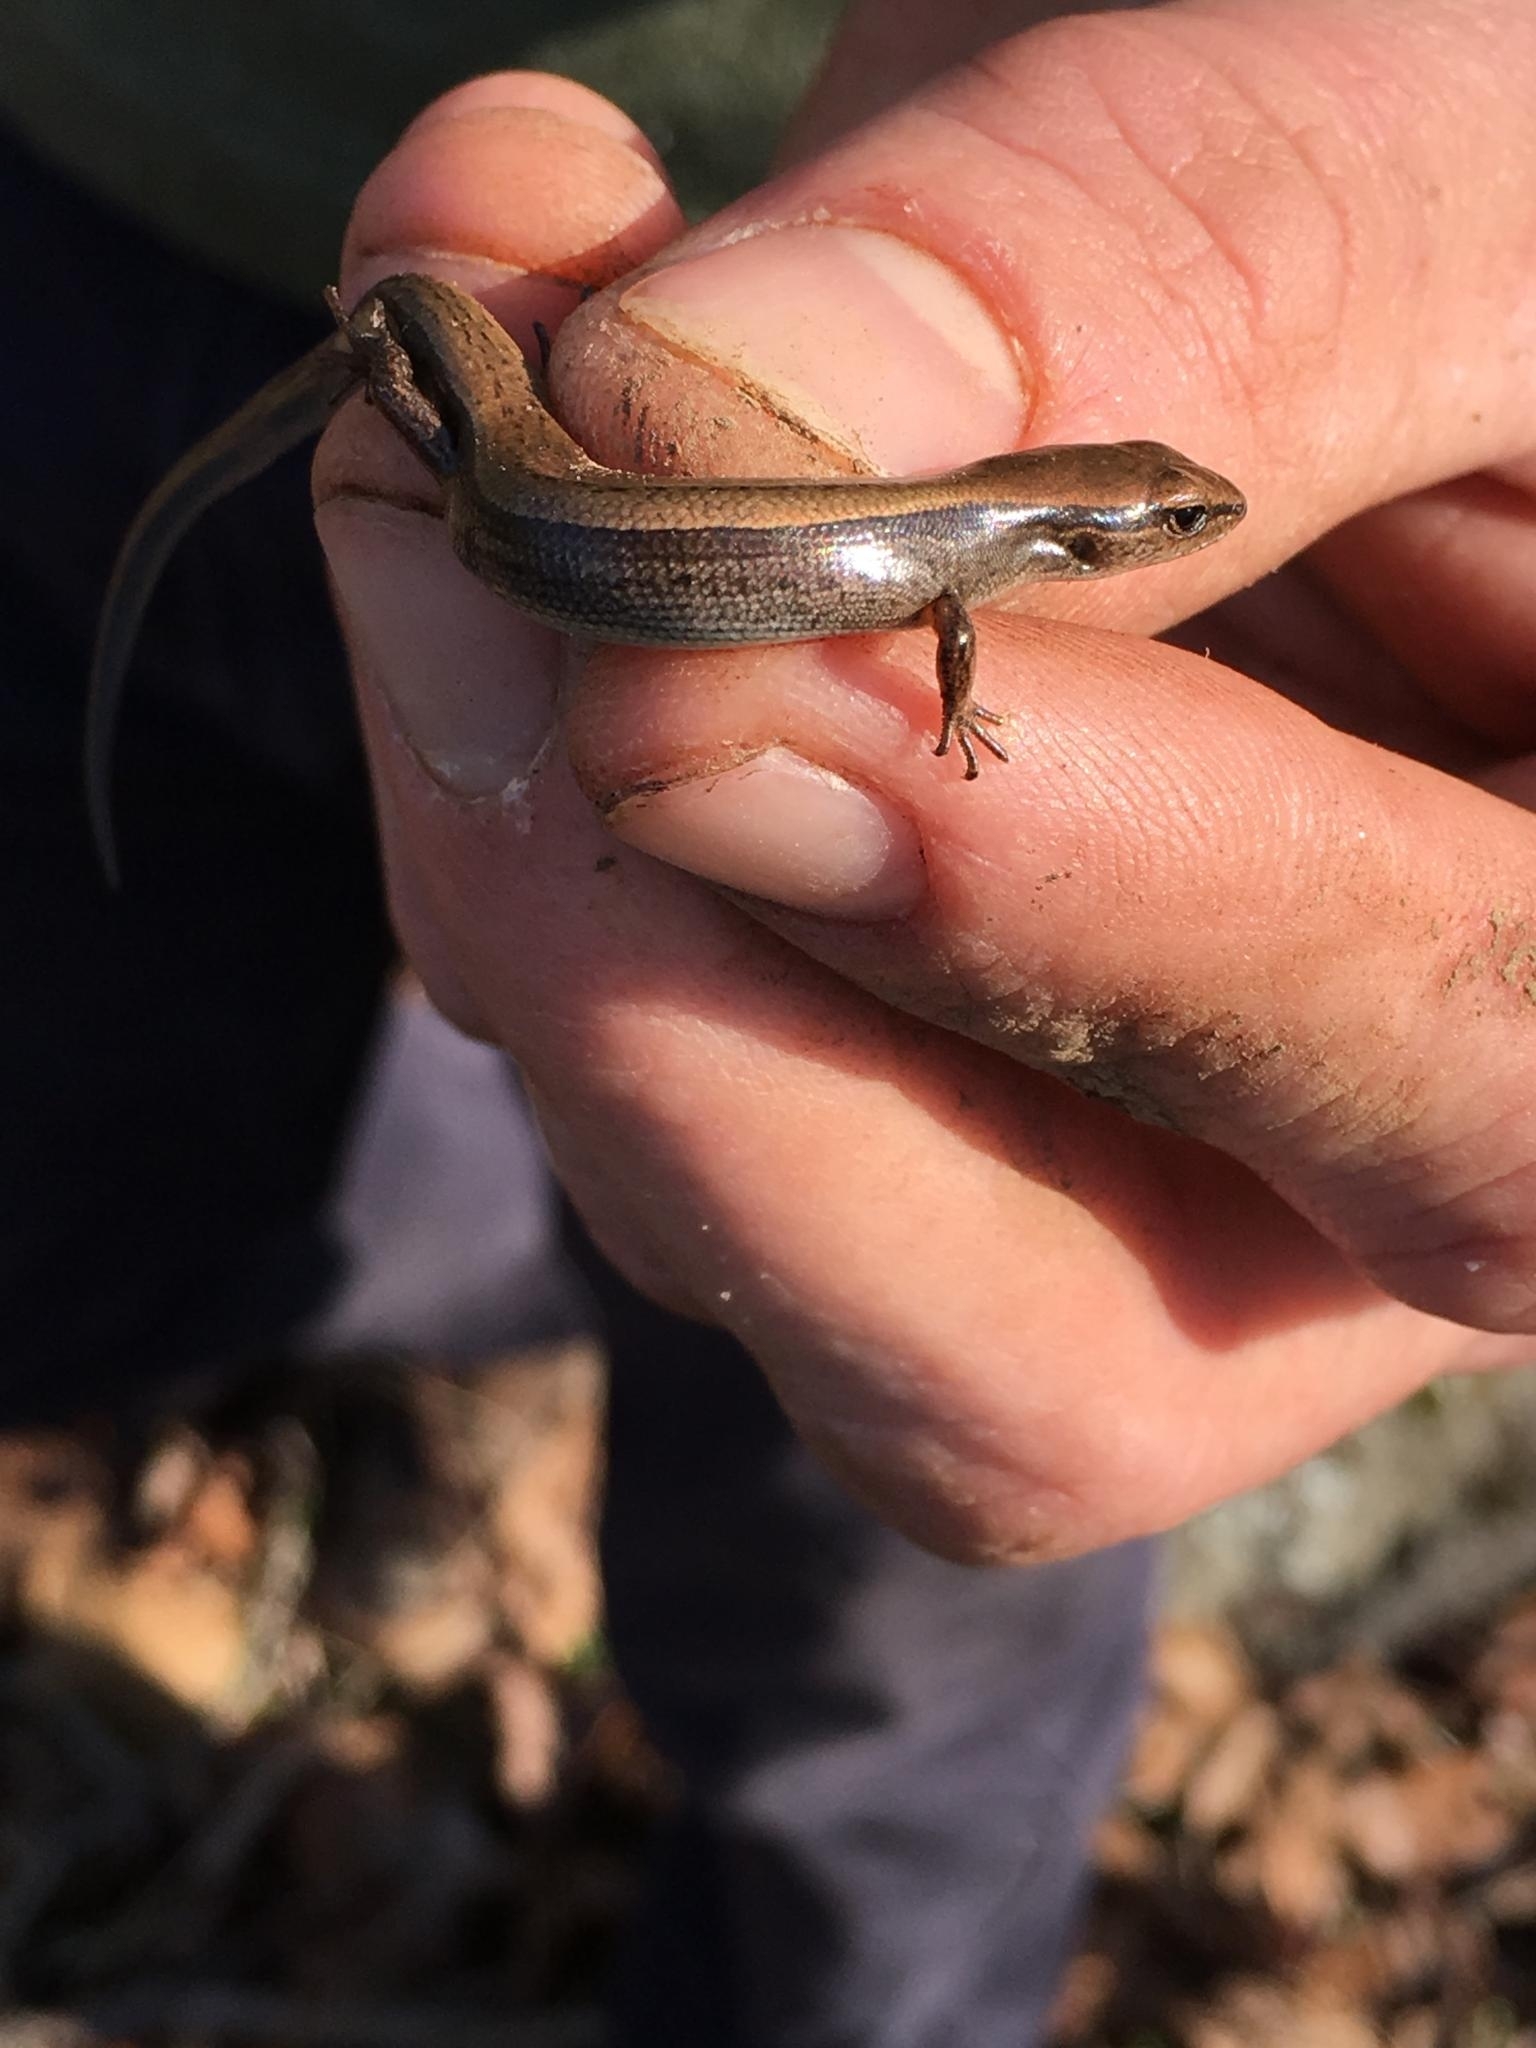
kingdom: Animalia
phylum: Chordata
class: Squamata
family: Scincidae
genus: Scincella
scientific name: Scincella lateralis
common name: Ground skink
